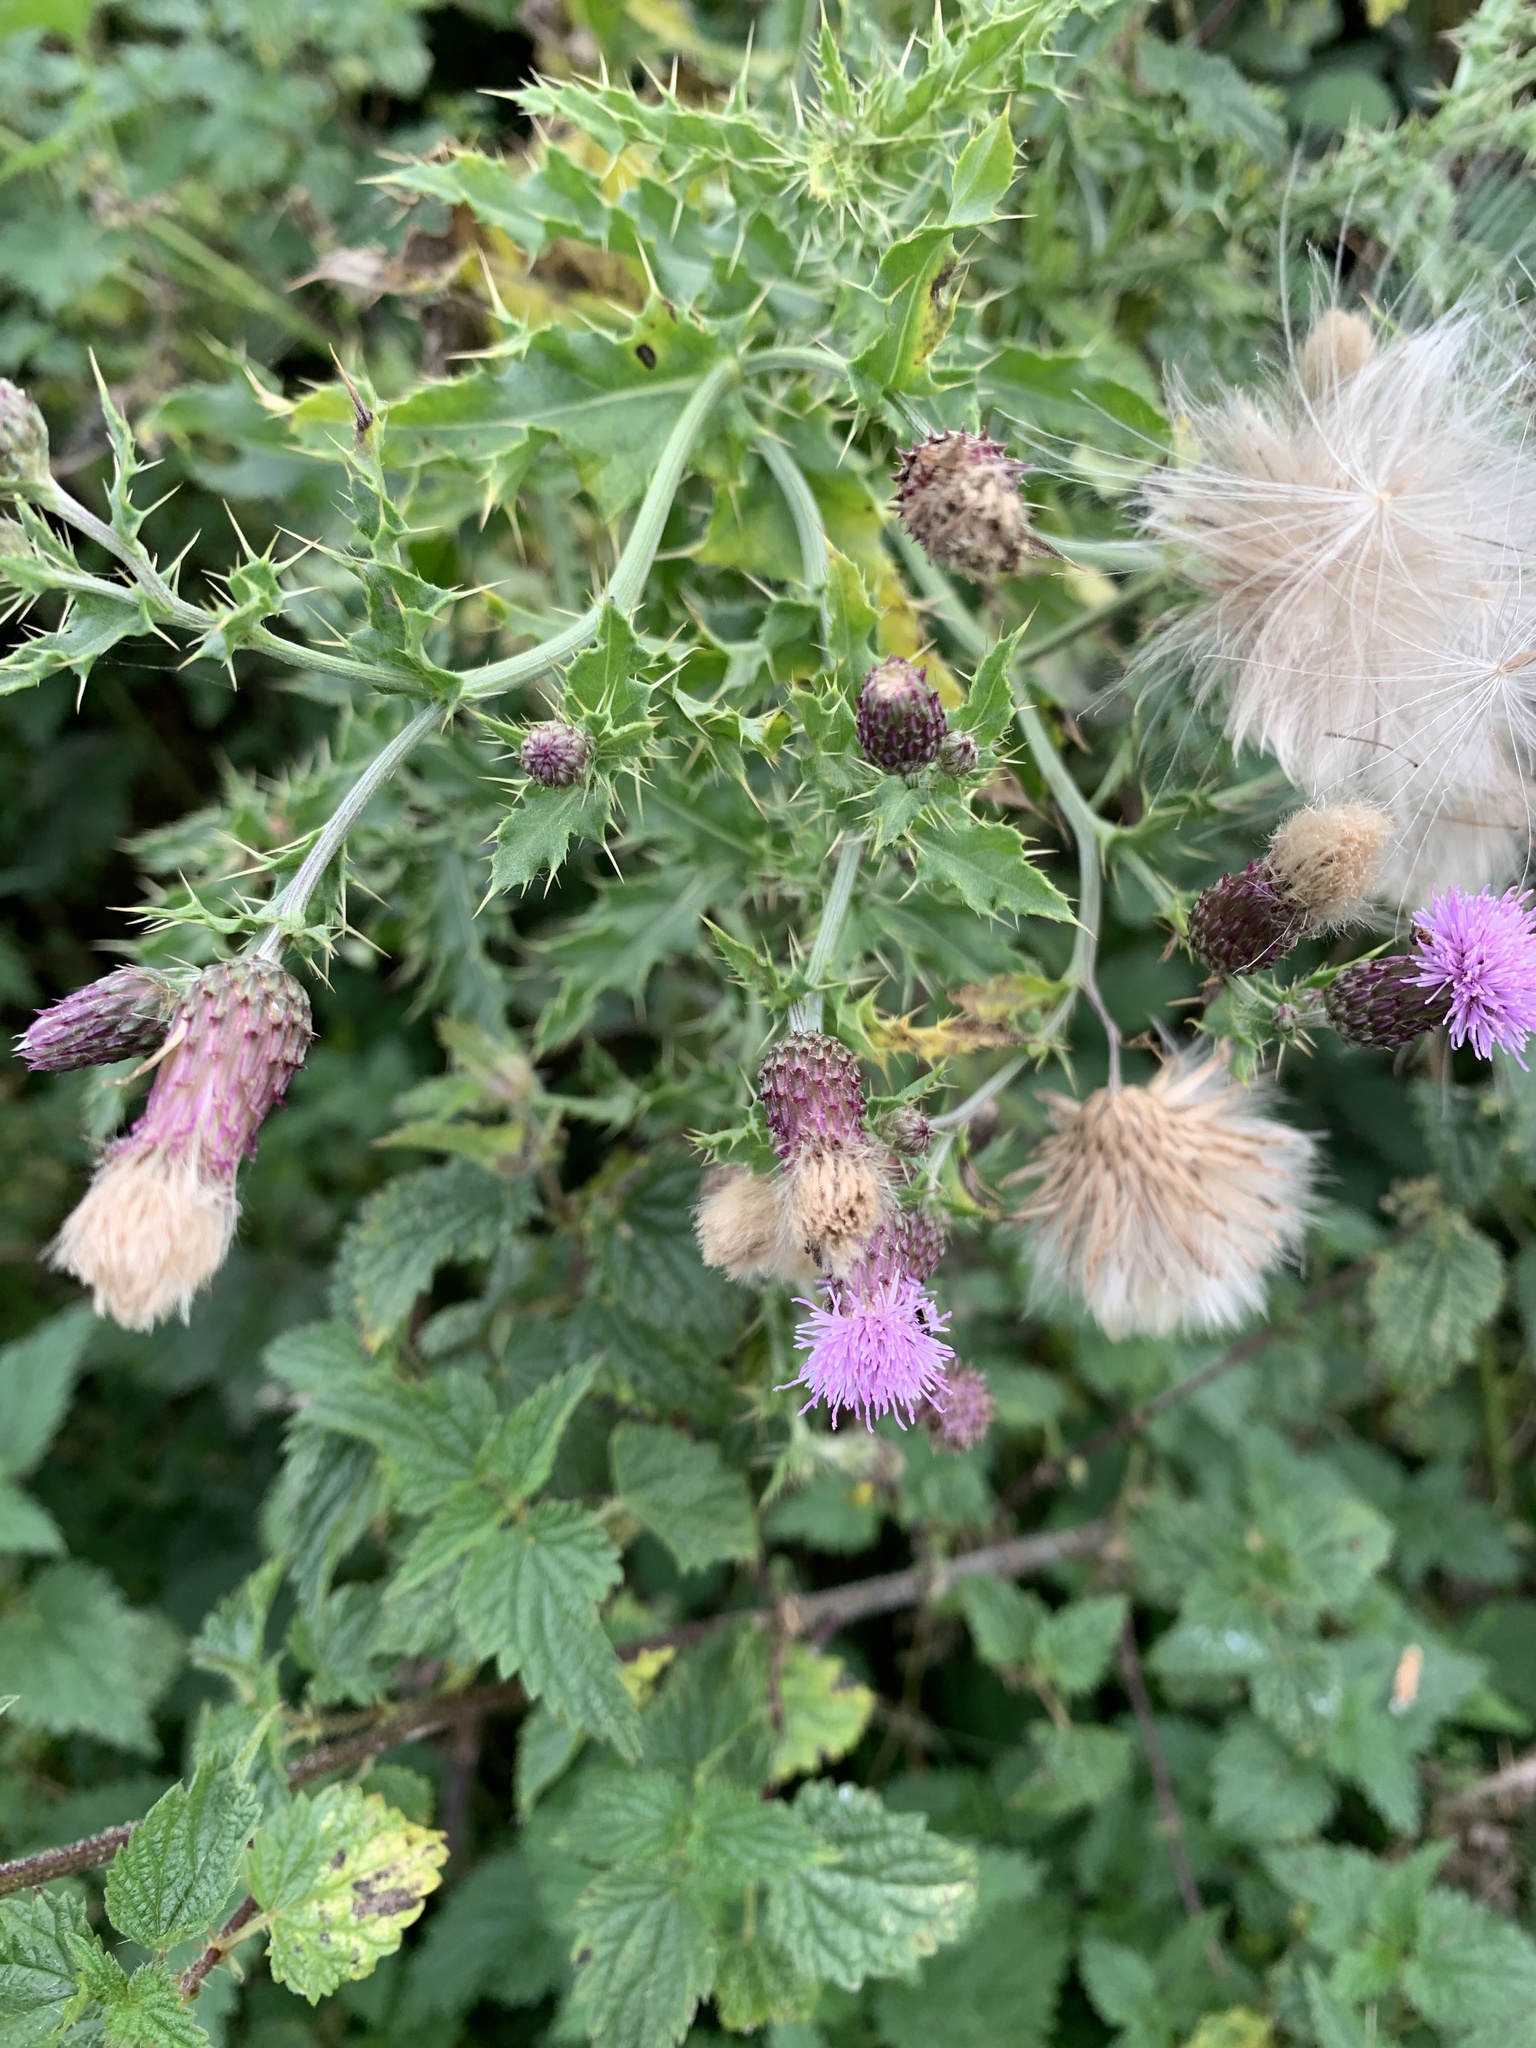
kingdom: Plantae
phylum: Tracheophyta
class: Magnoliopsida
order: Asterales
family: Asteraceae
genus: Cirsium
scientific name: Cirsium arvense
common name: Creeping thistle
